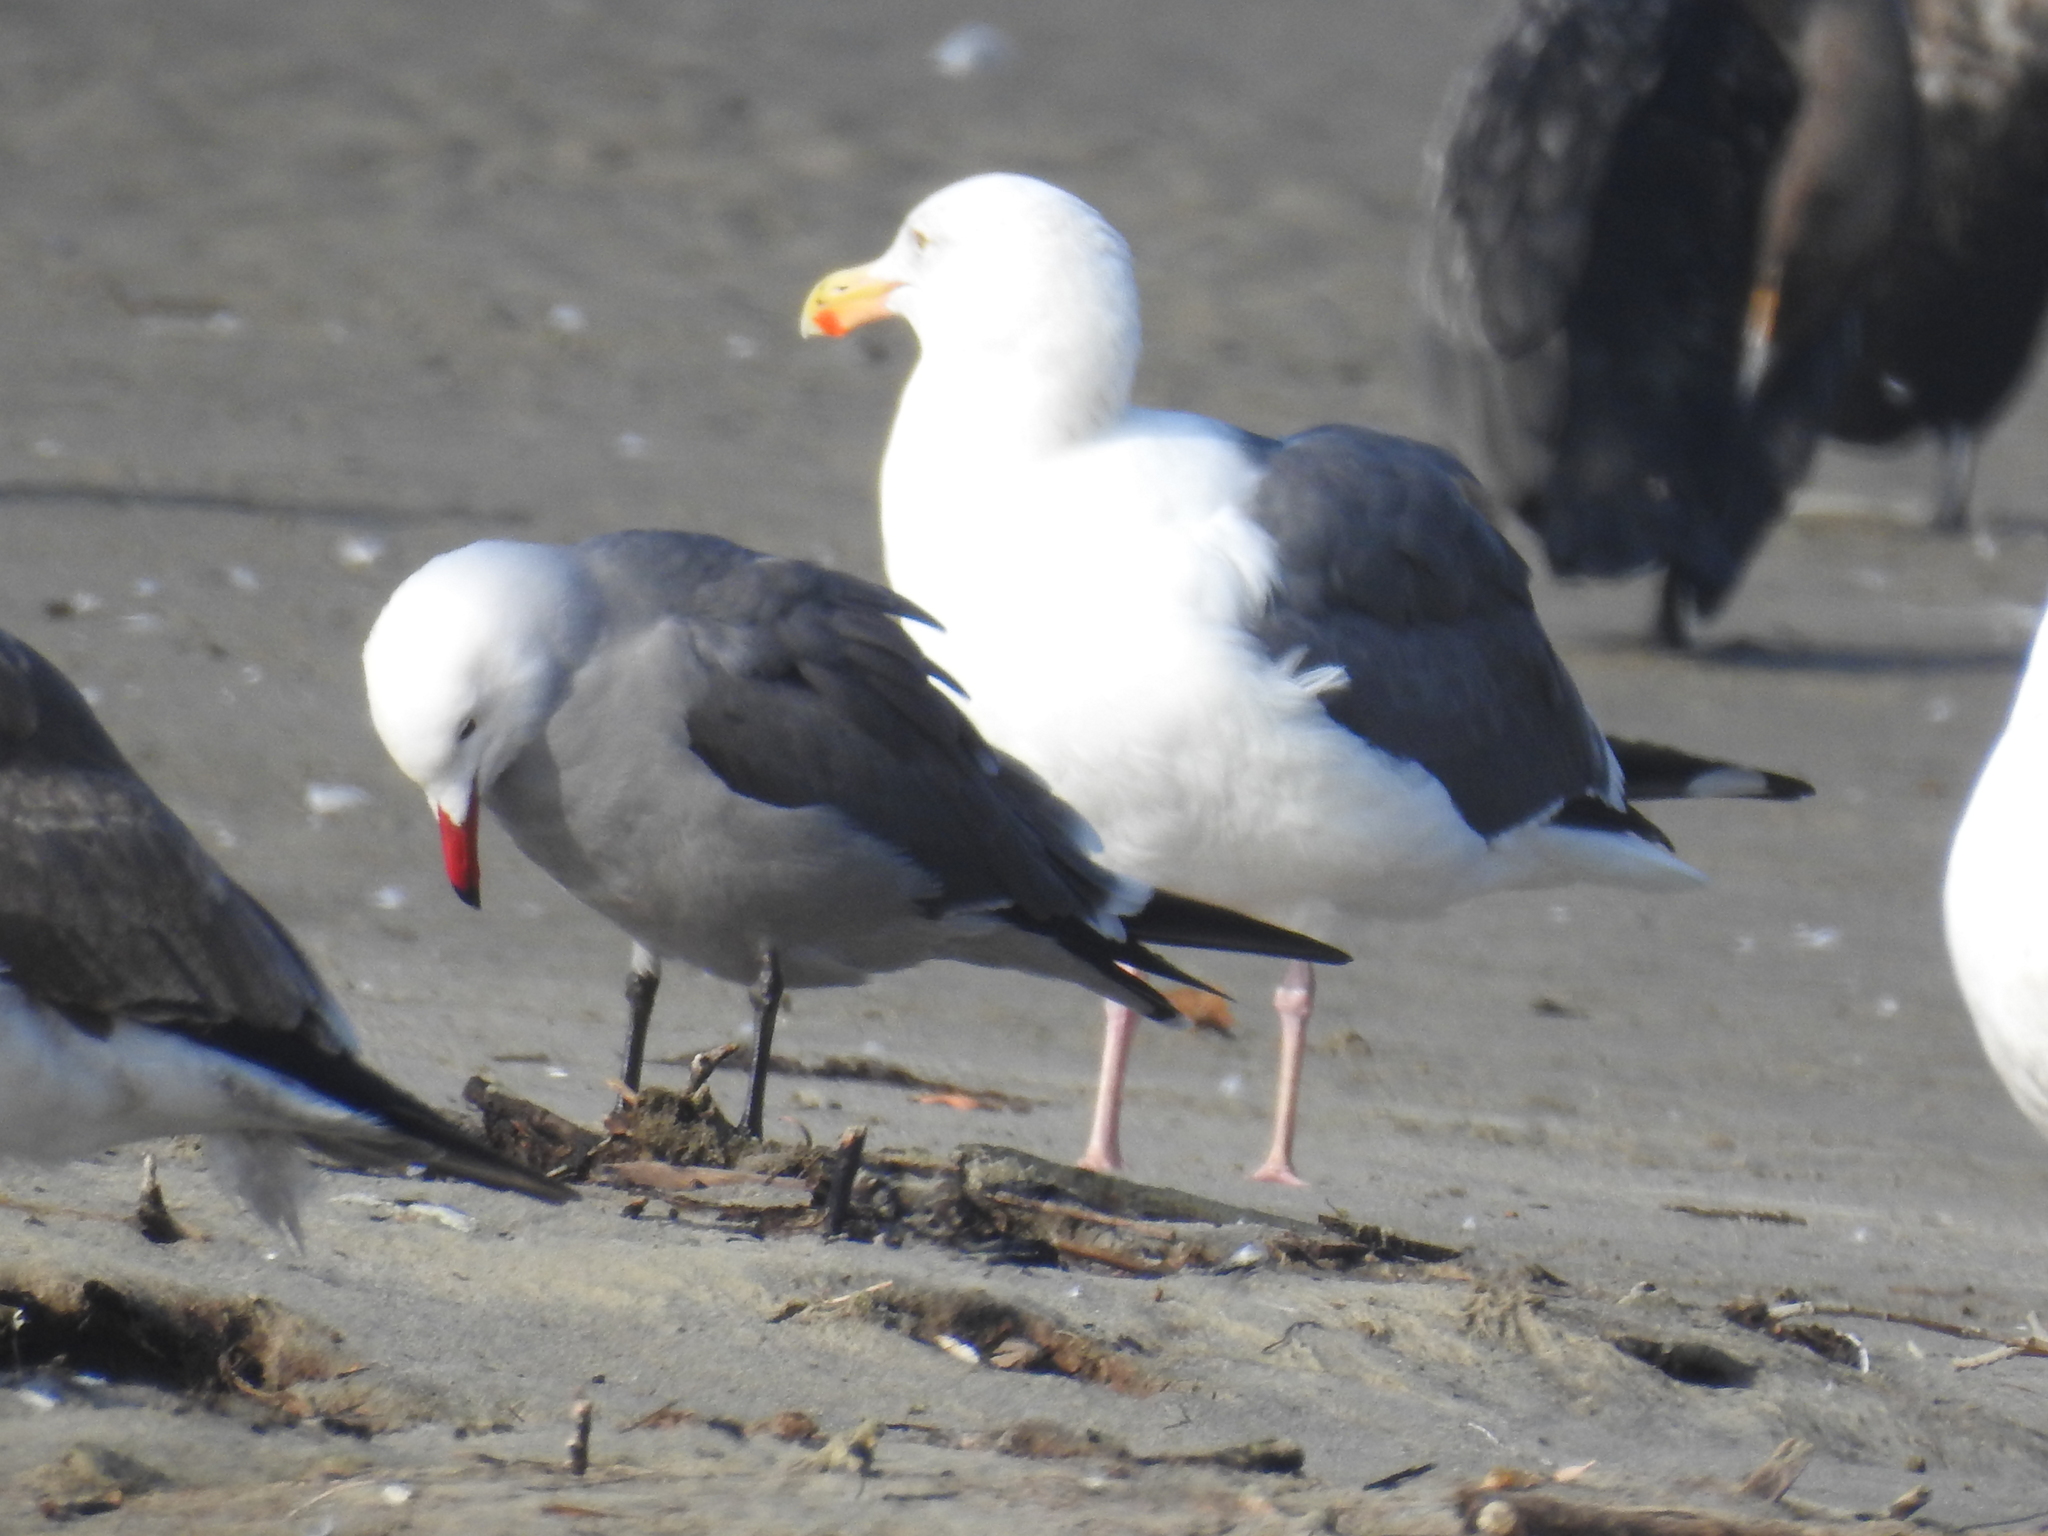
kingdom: Animalia
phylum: Chordata
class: Aves
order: Charadriiformes
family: Laridae
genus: Larus
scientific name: Larus heermanni
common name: Heermann's gull
